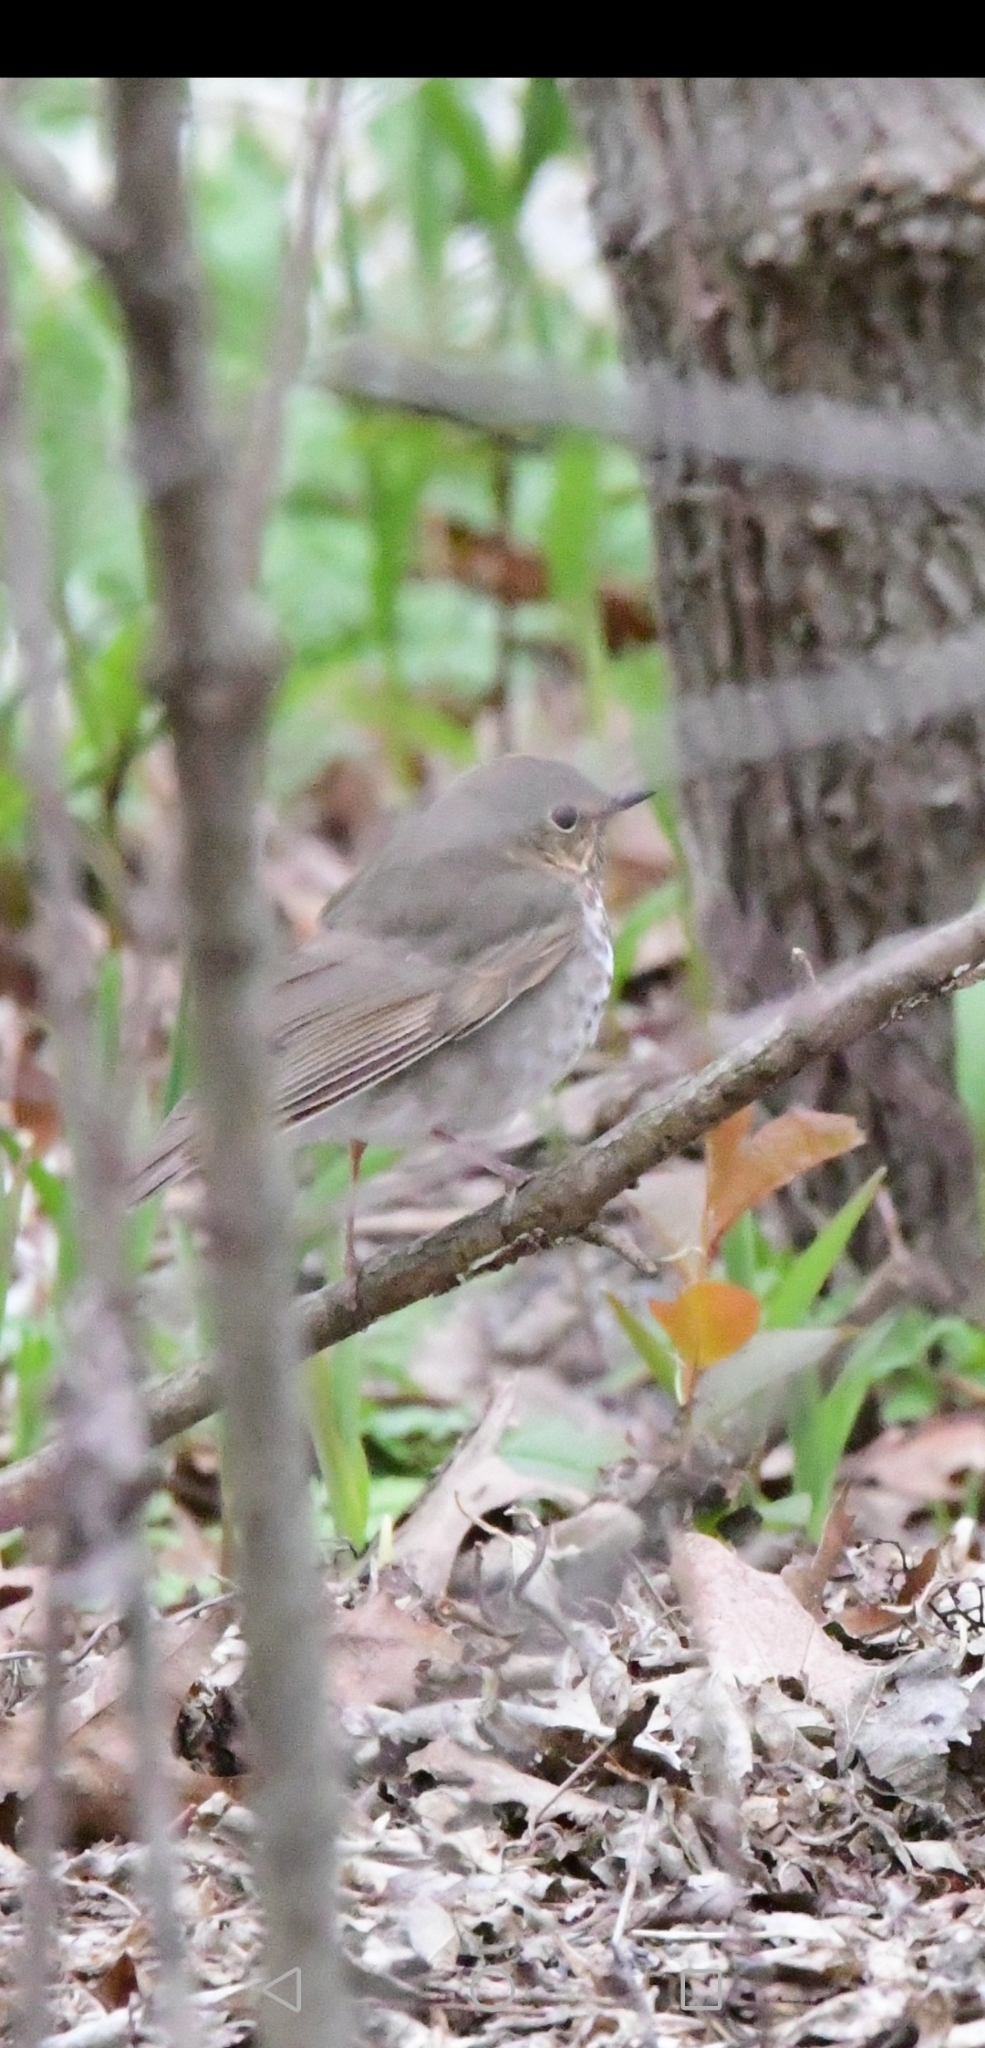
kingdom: Animalia
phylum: Chordata
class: Aves
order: Passeriformes
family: Turdidae
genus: Catharus
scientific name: Catharus ustulatus
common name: Swainson's thrush
